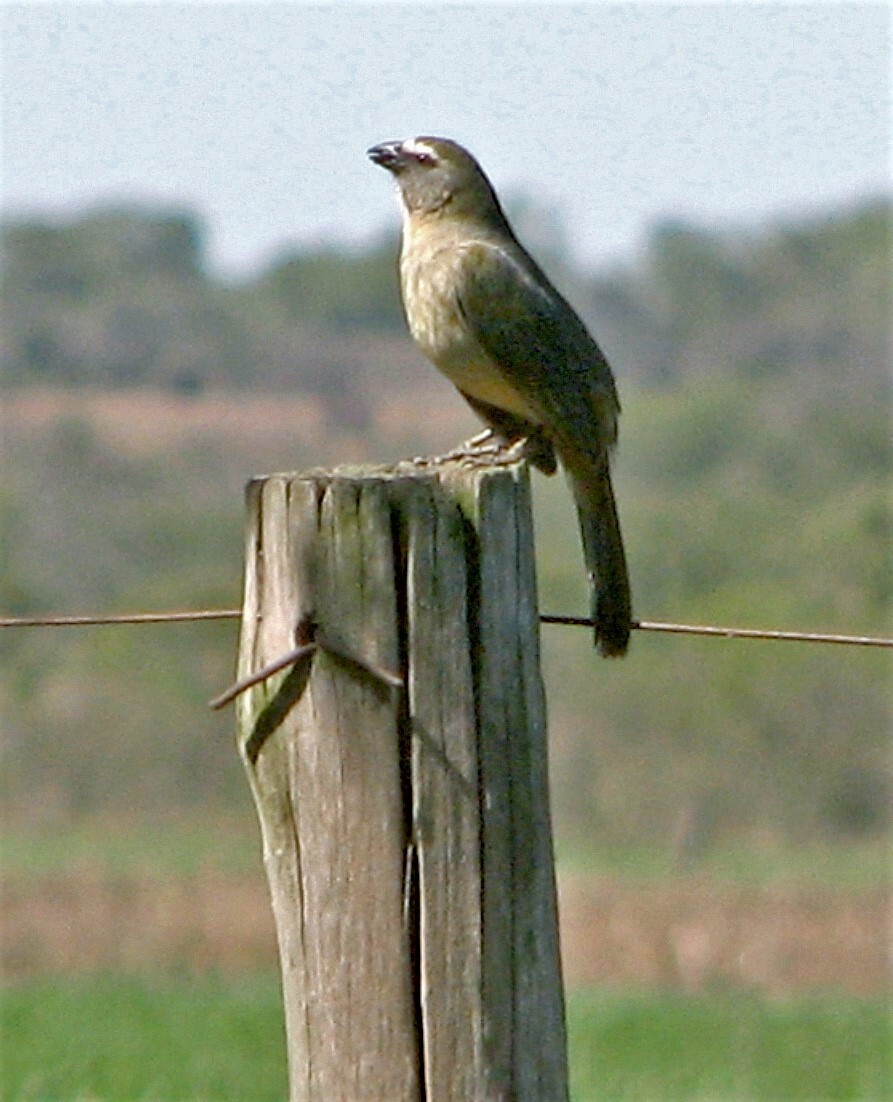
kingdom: Animalia
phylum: Chordata
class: Aves
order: Passeriformes
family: Thraupidae
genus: Saltator
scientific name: Saltator coerulescens
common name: Grayish saltator
